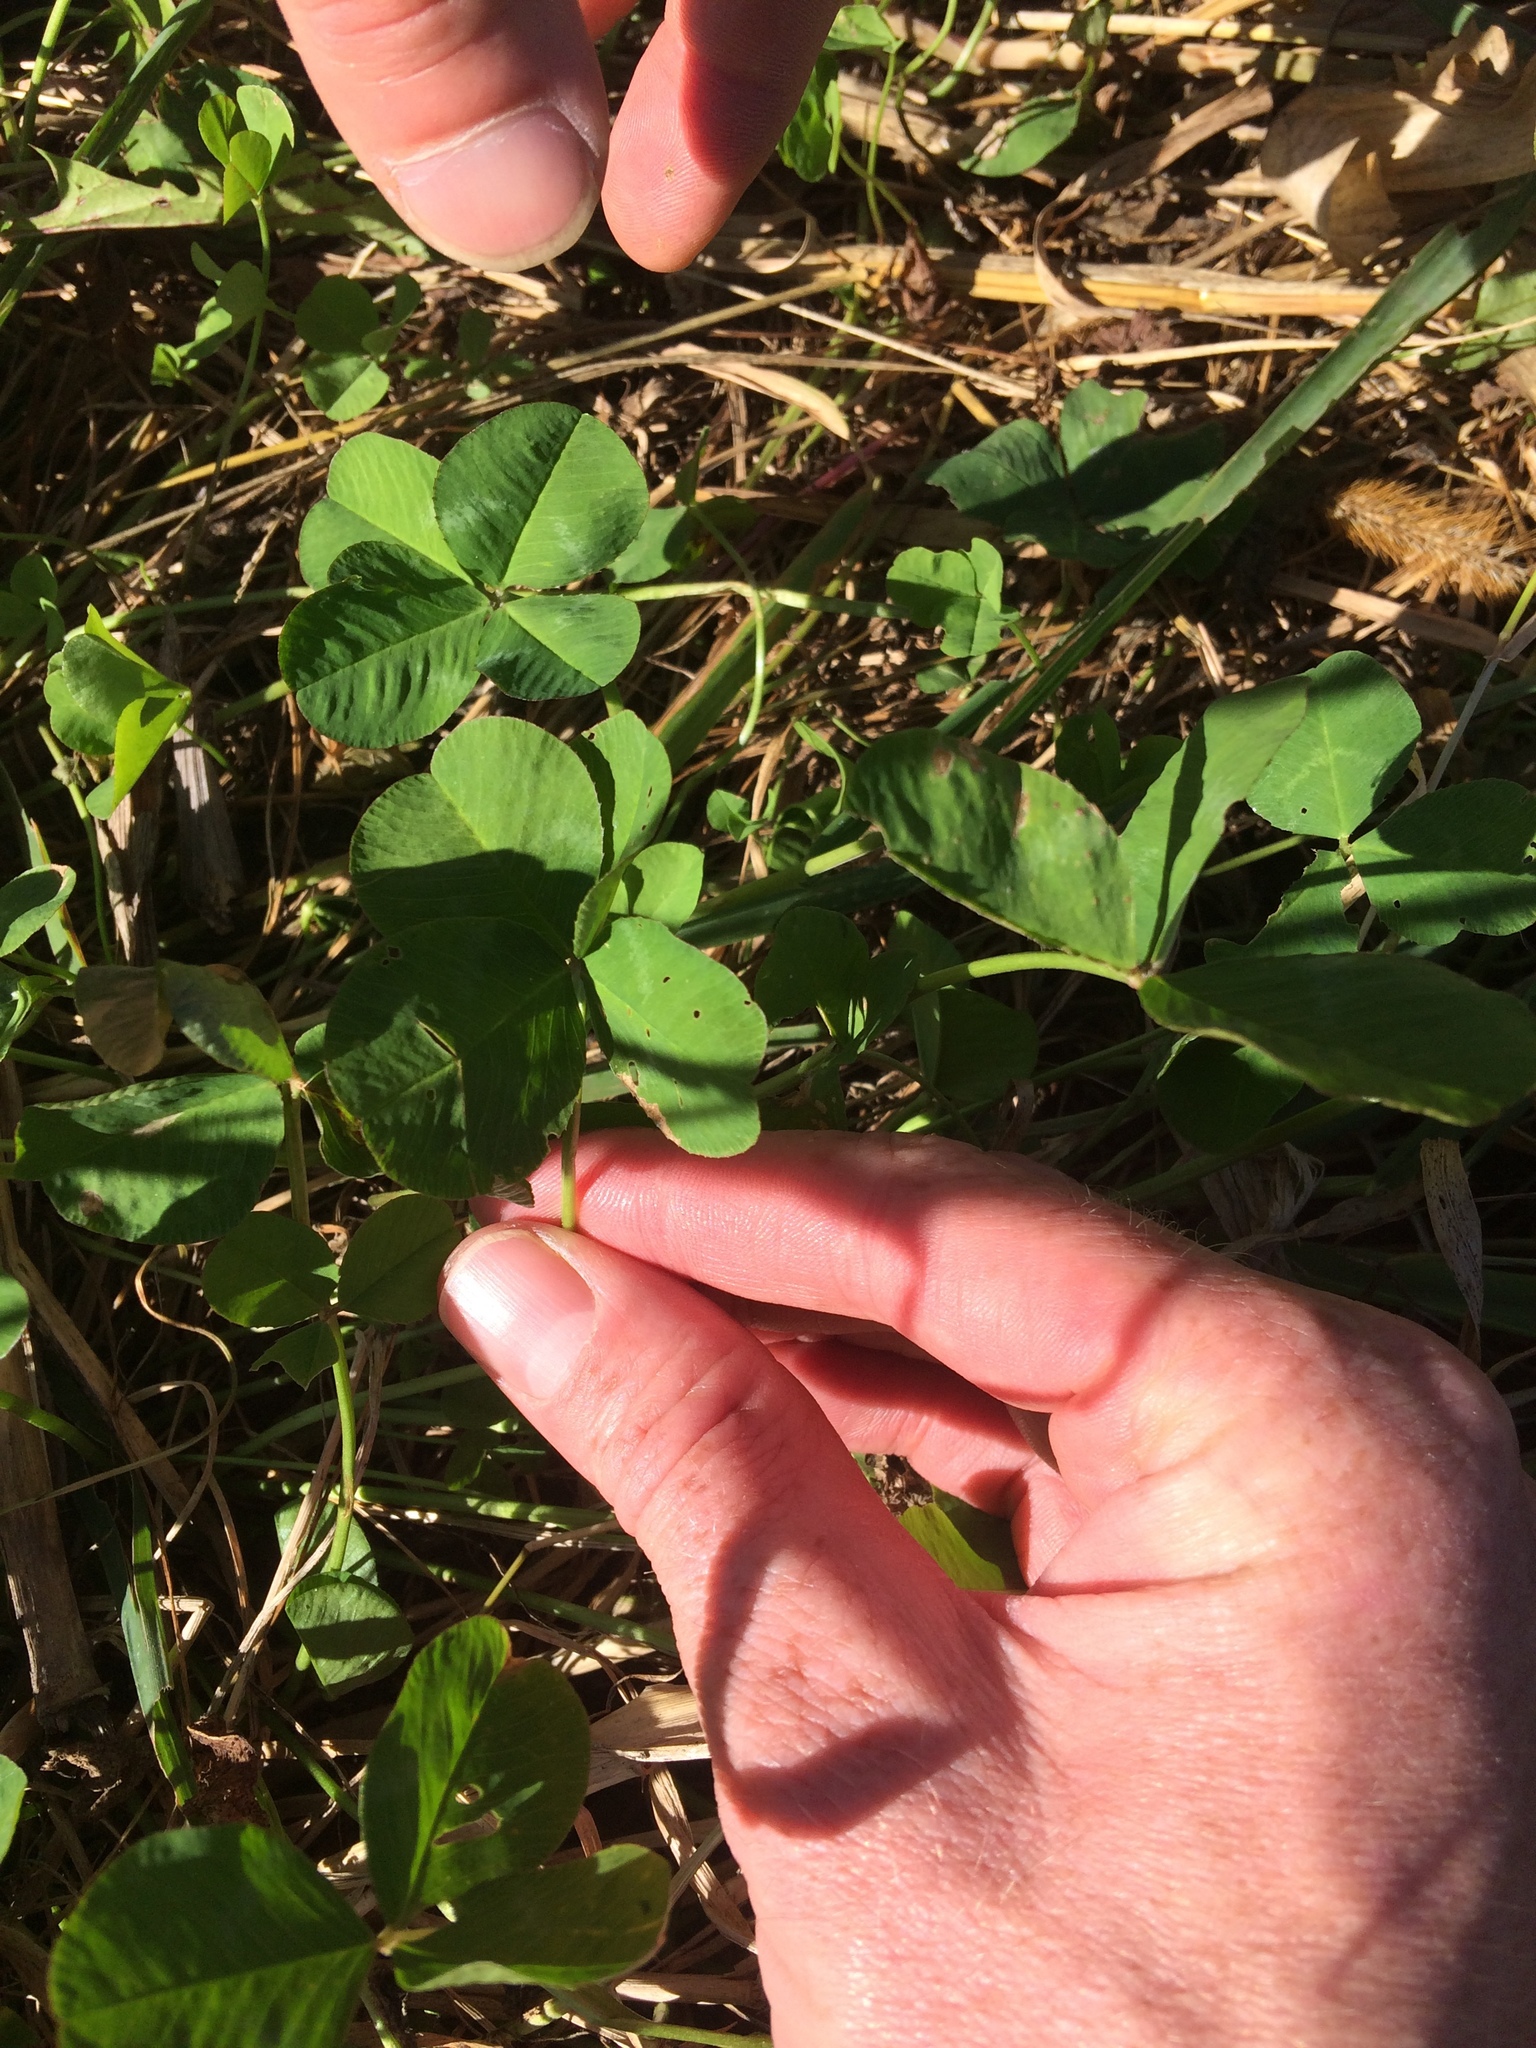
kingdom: Plantae
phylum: Tracheophyta
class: Magnoliopsida
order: Fabales
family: Fabaceae
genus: Trifolium
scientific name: Trifolium repens
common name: White clover
